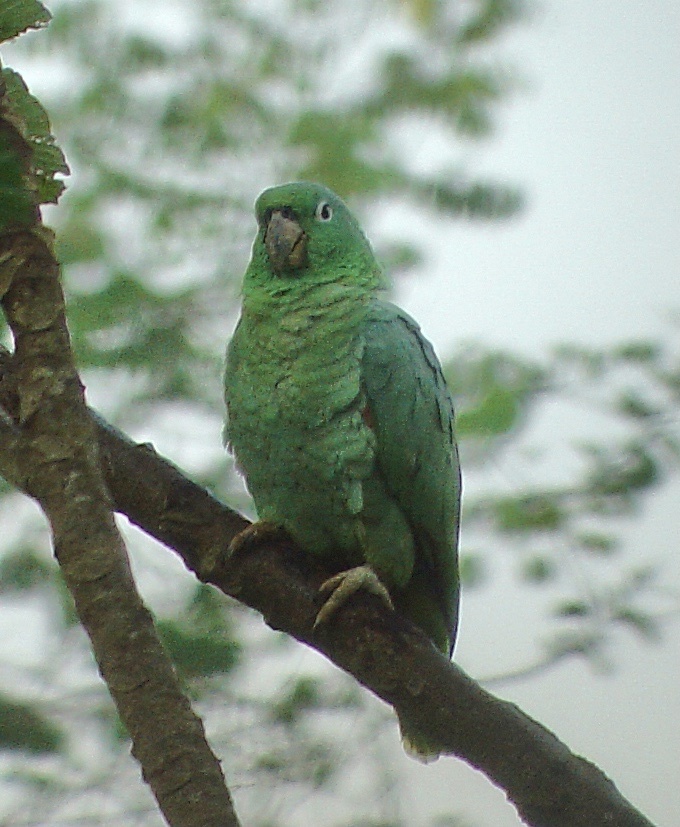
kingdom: Animalia
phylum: Chordata
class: Aves
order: Psittaciformes
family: Psittacidae
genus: Amazona
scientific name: Amazona farinosa
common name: Mealy parrot
